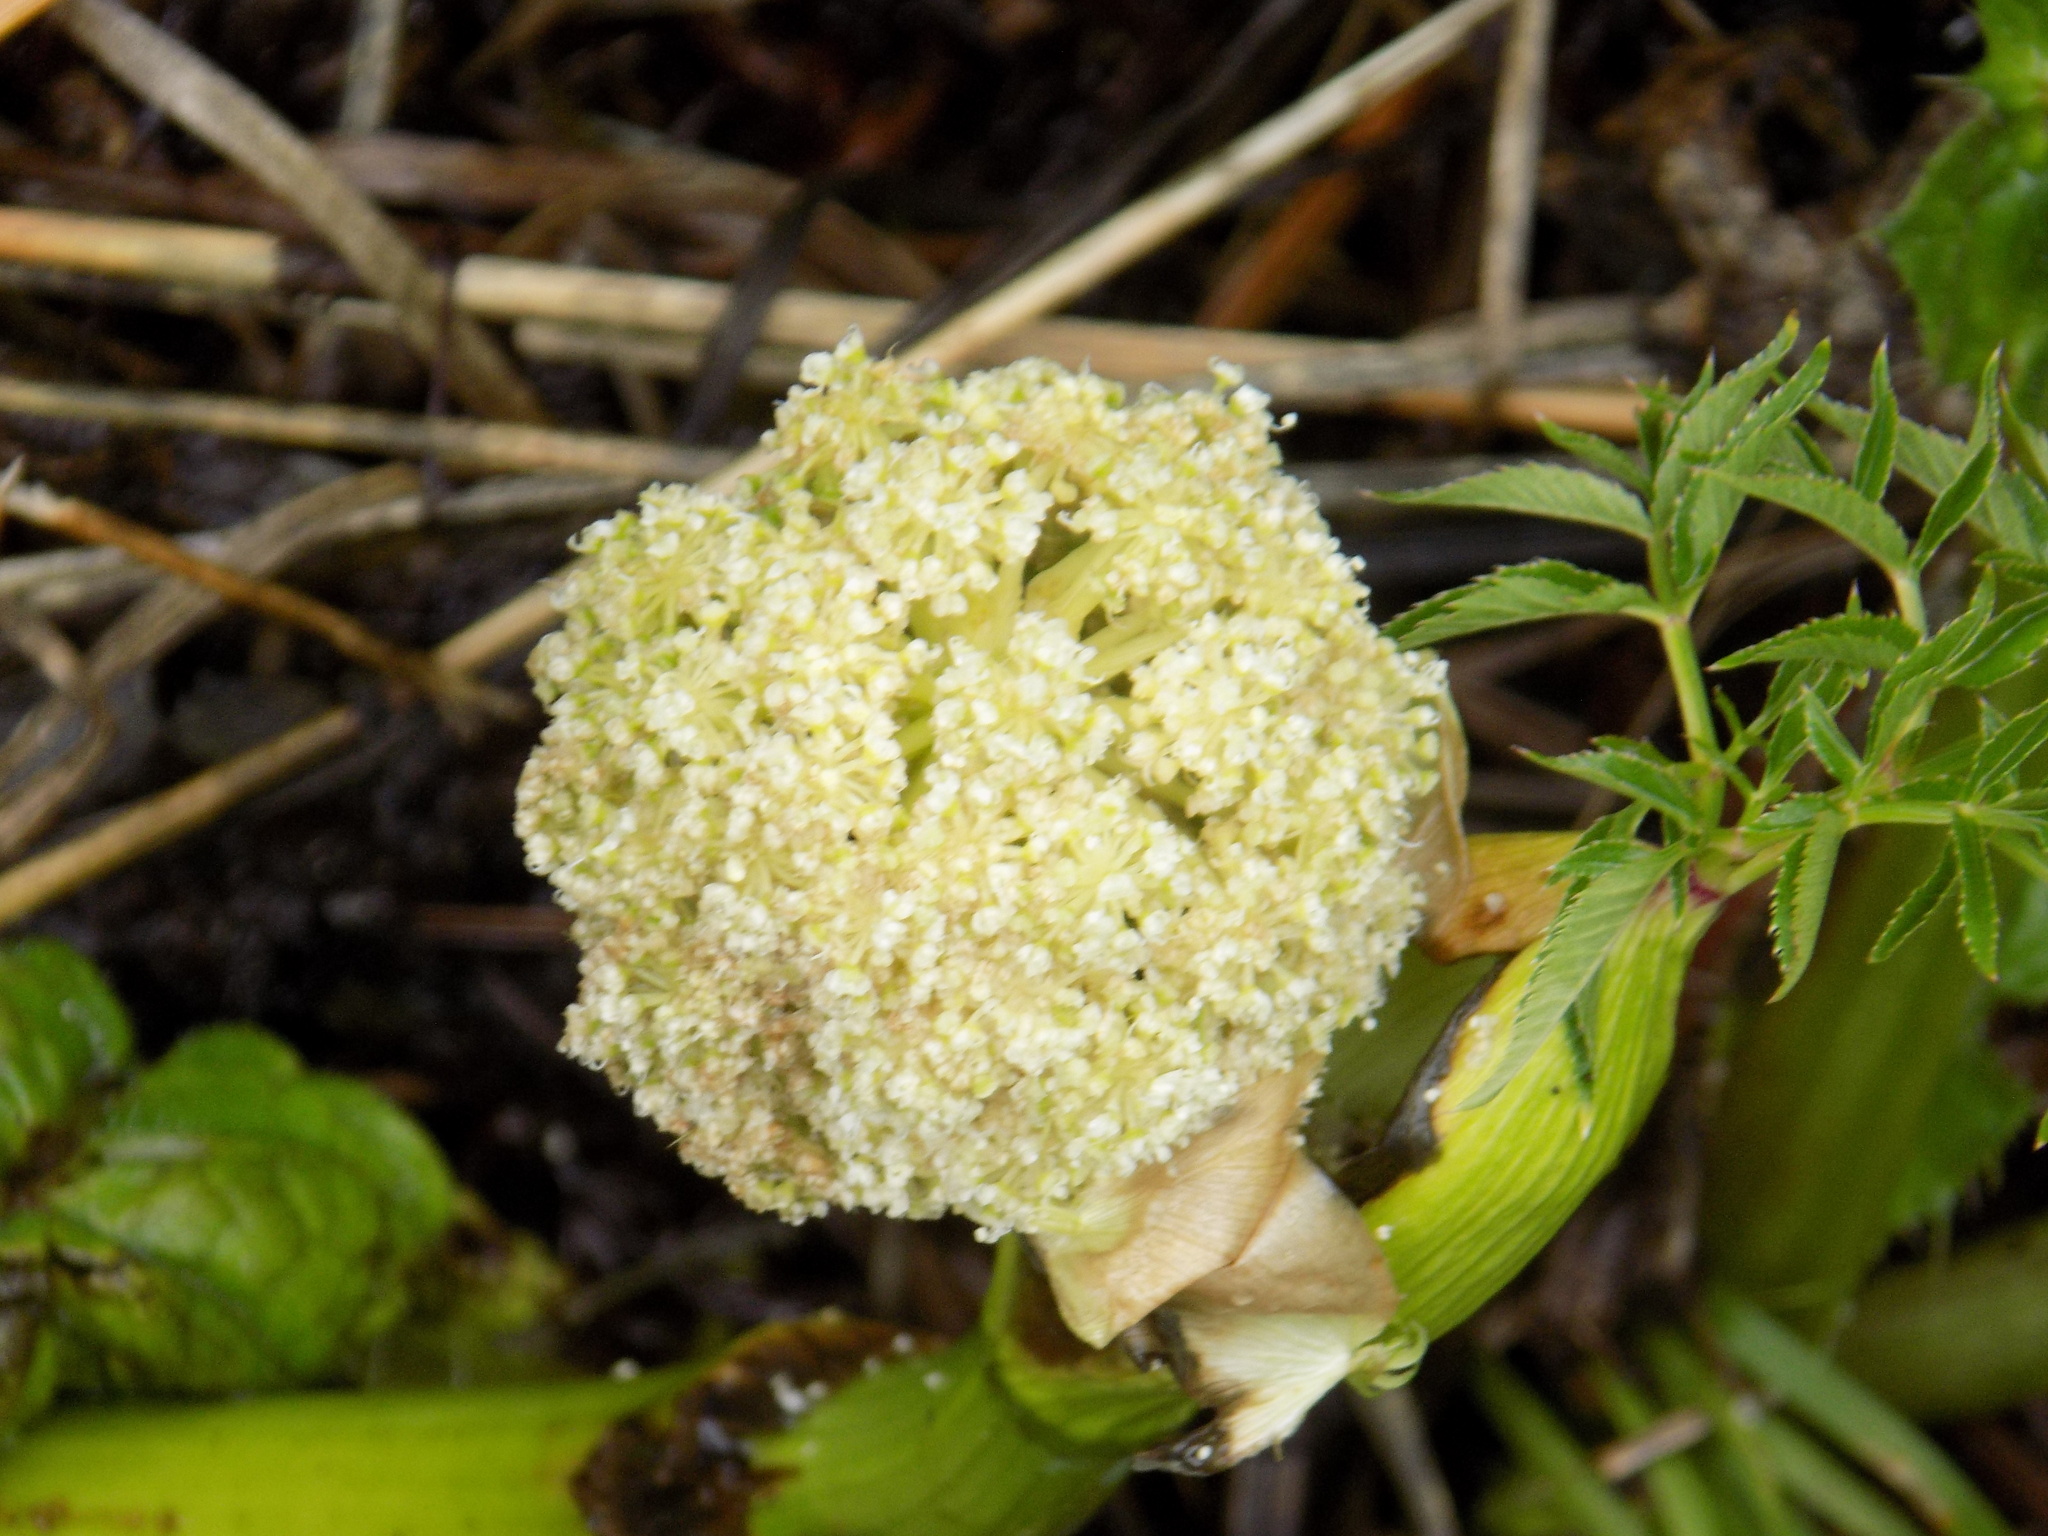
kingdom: Plantae
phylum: Tracheophyta
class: Magnoliopsida
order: Apiales
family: Apiaceae
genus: Angelica
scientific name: Angelica decurrens
